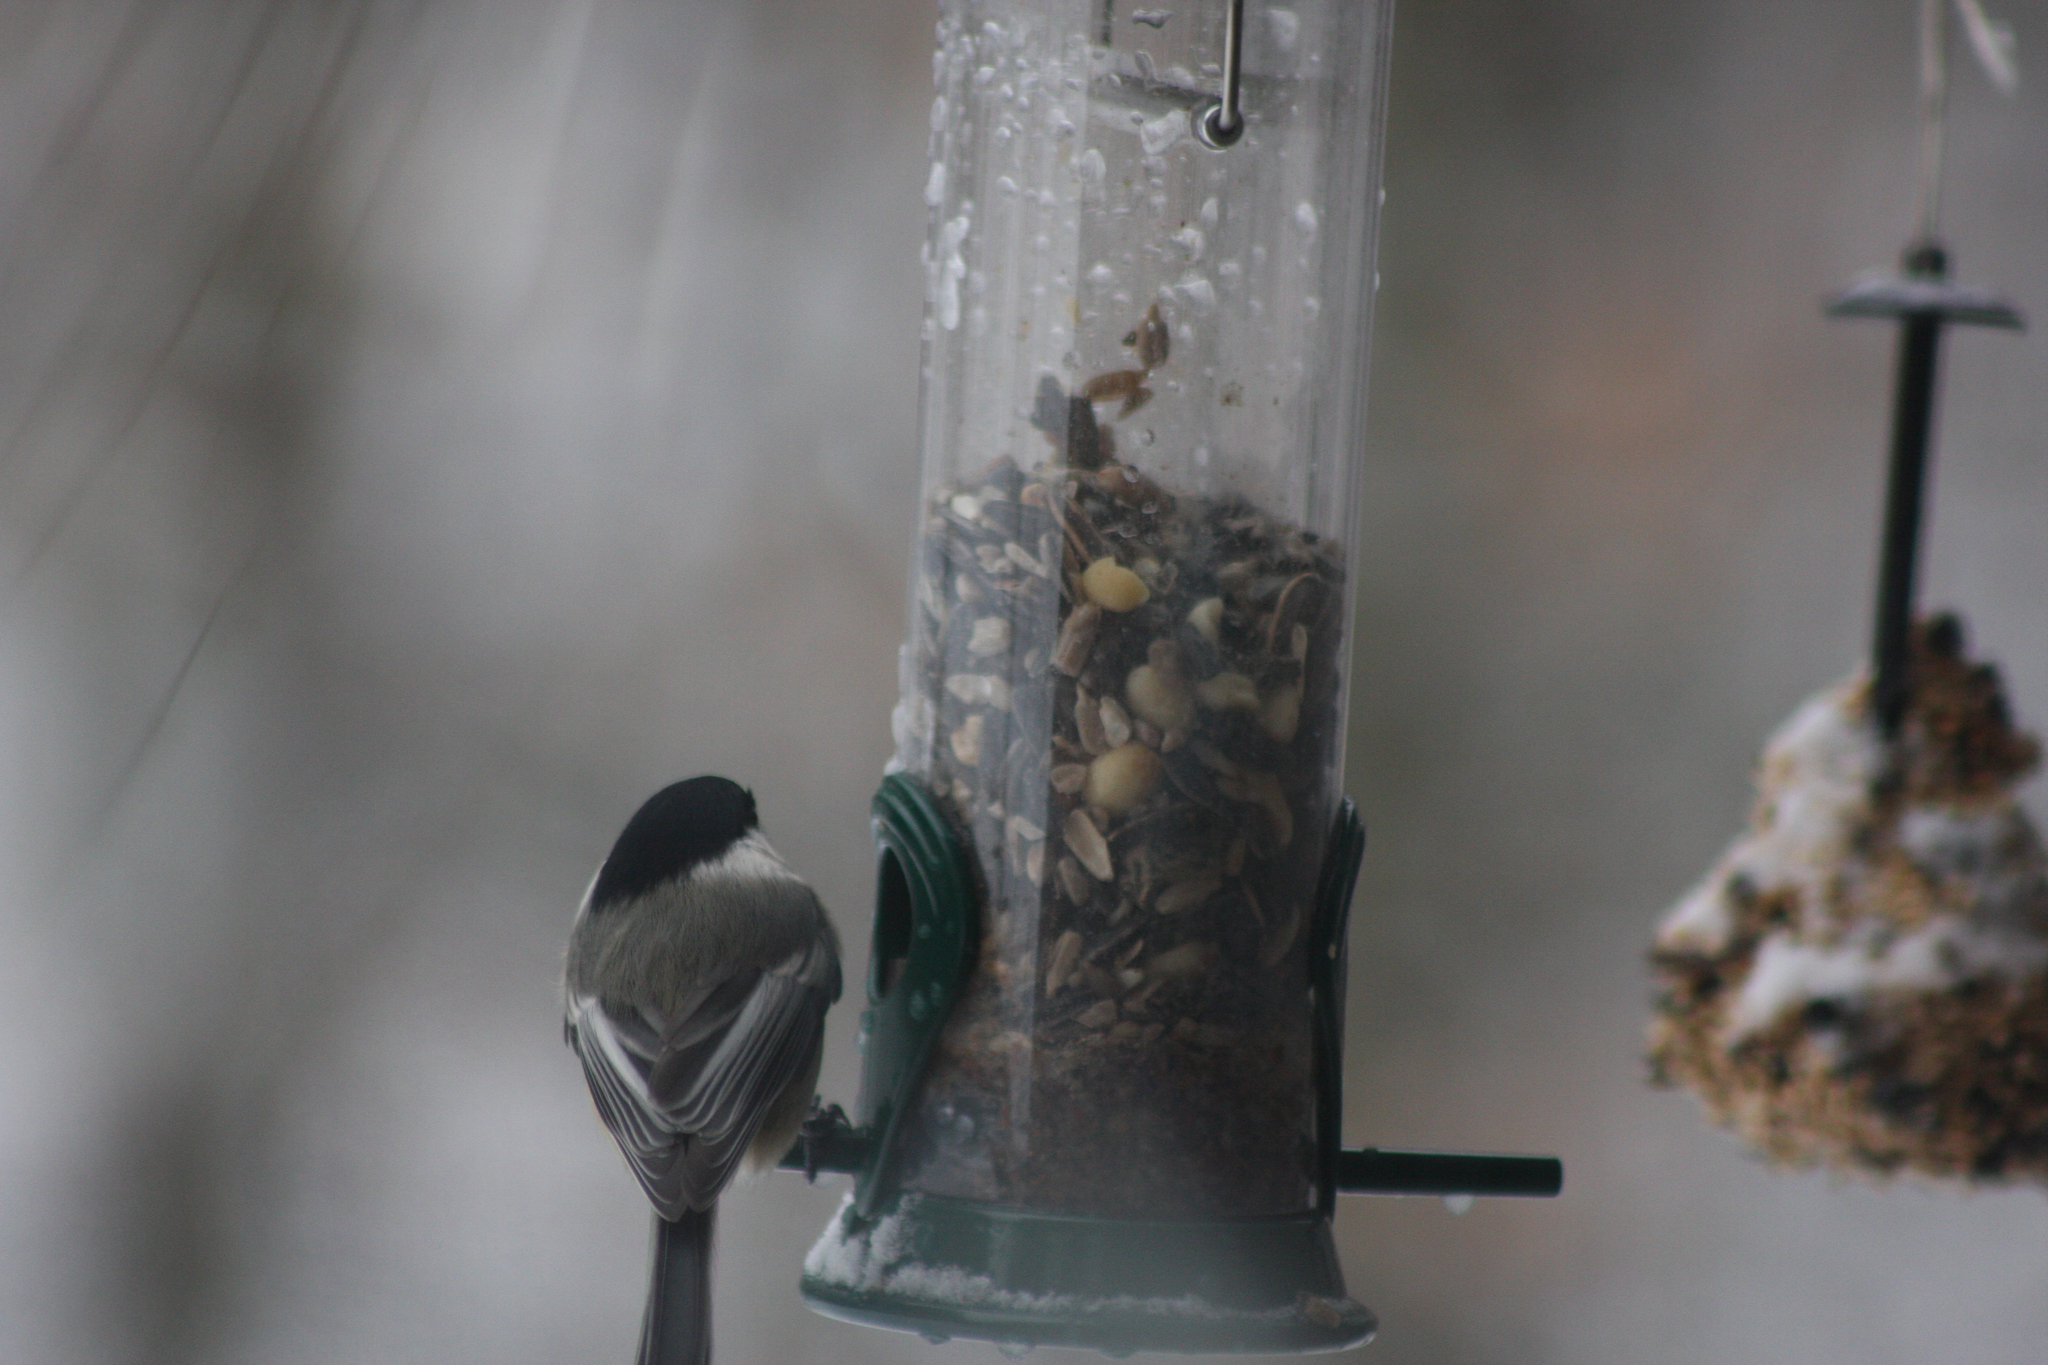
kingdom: Animalia
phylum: Chordata
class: Aves
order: Passeriformes
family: Paridae
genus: Poecile
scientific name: Poecile atricapillus
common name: Black-capped chickadee
